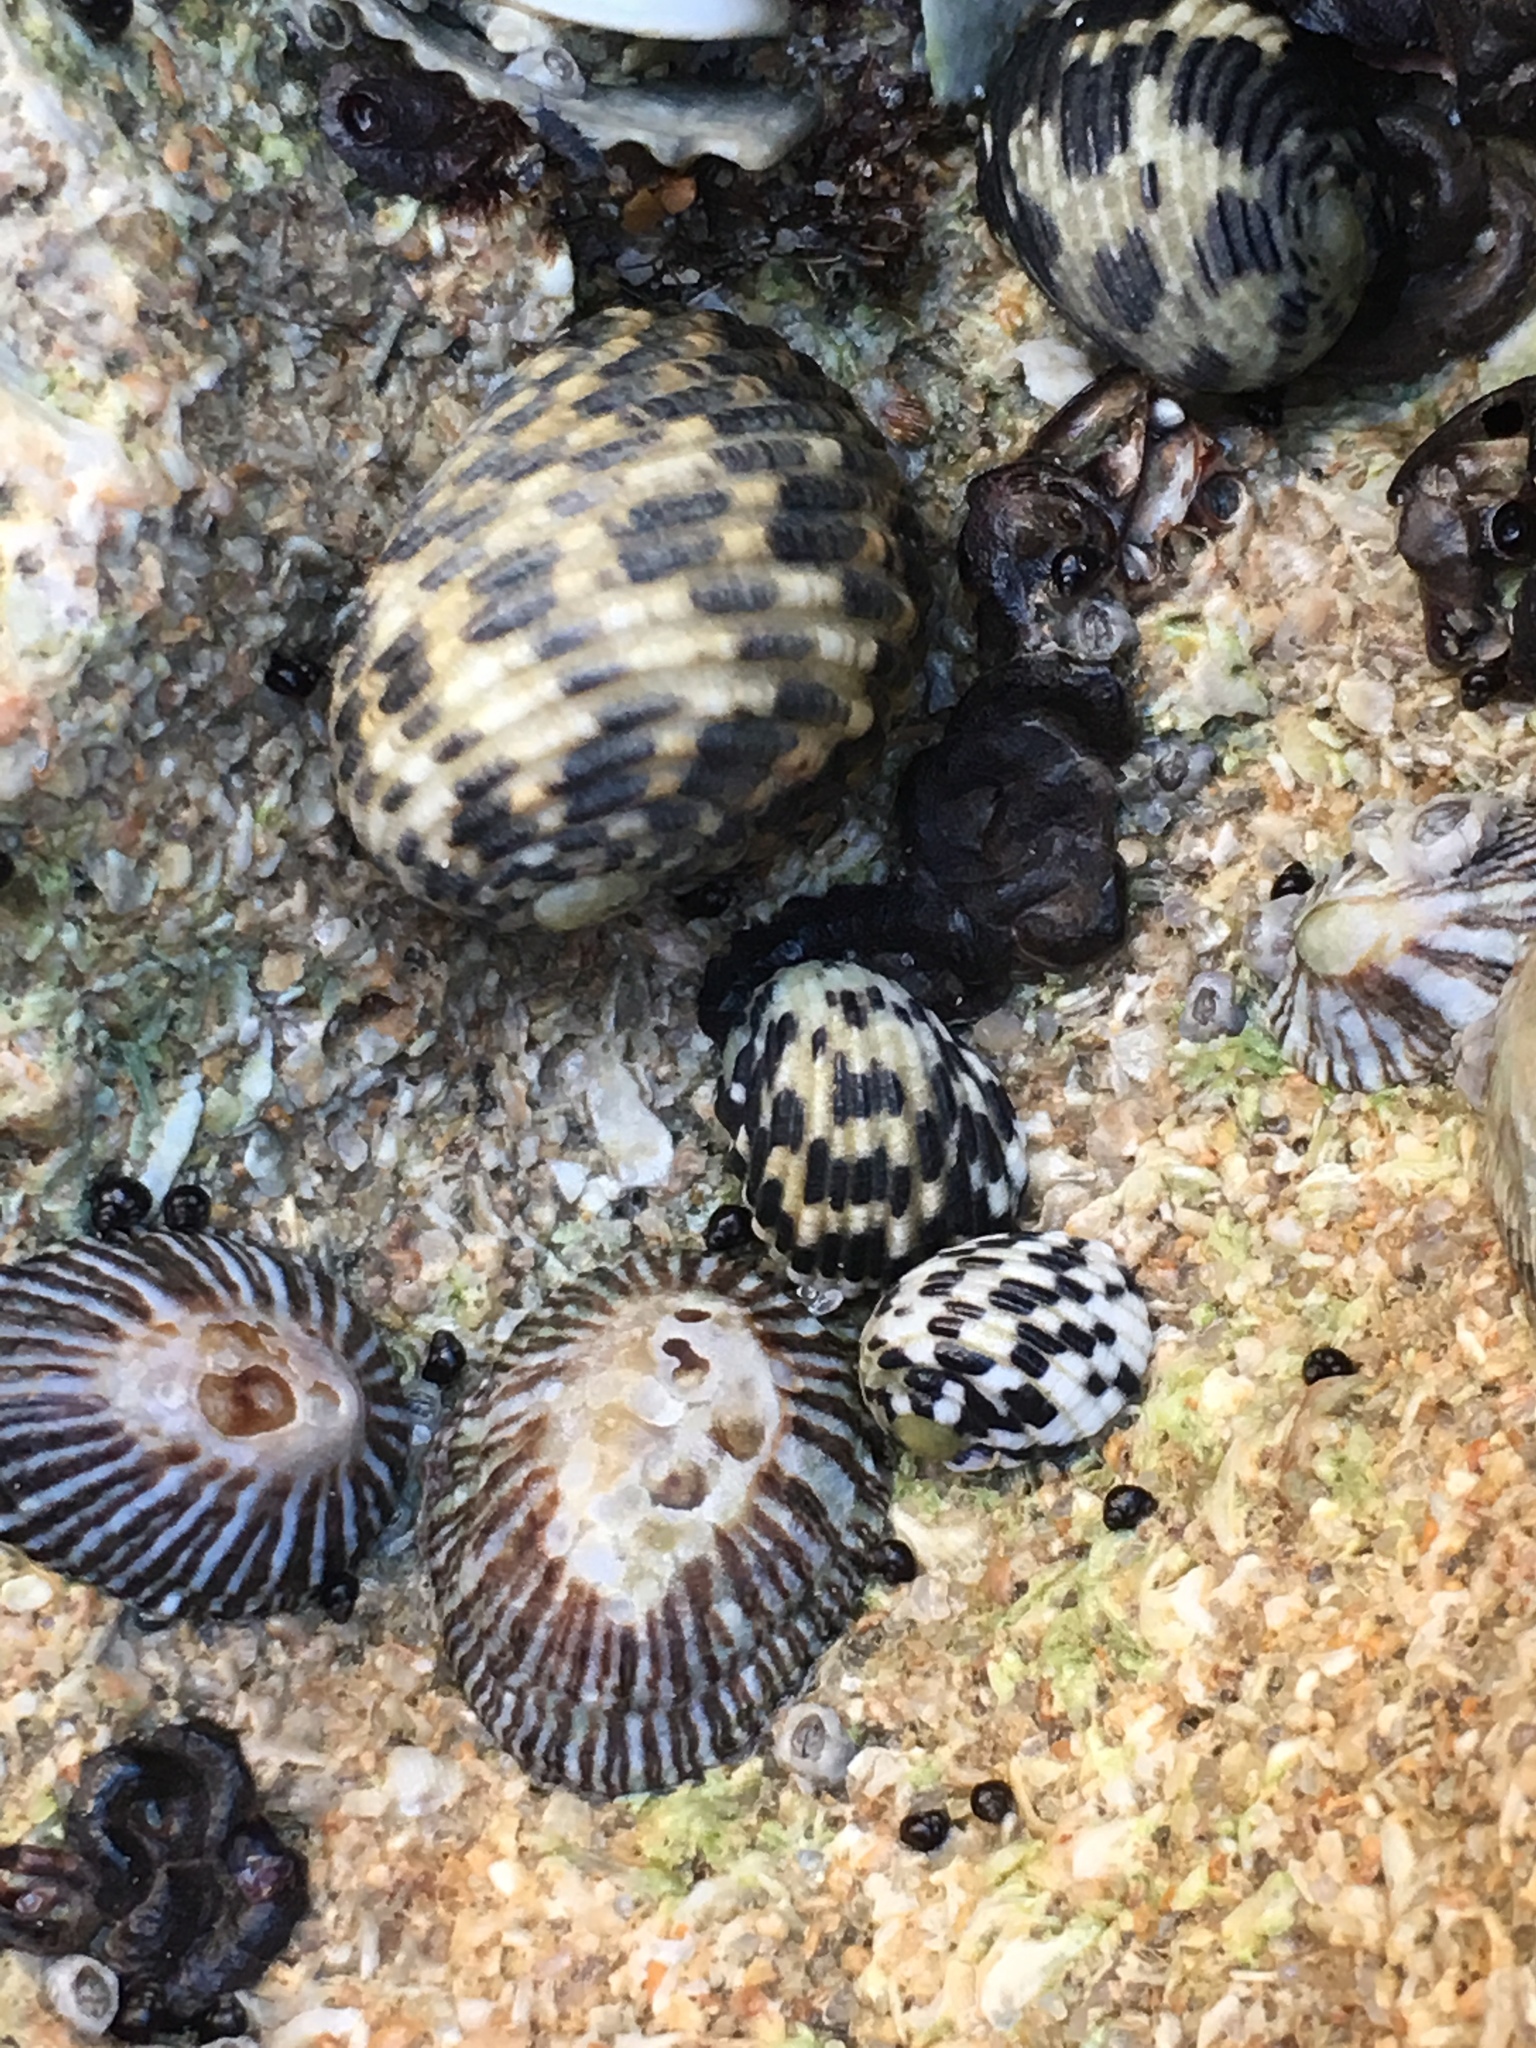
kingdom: Animalia
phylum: Mollusca
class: Gastropoda
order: Cycloneritida
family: Neritidae
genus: Nerita
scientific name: Nerita versicolor
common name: Four-tooth nerite
